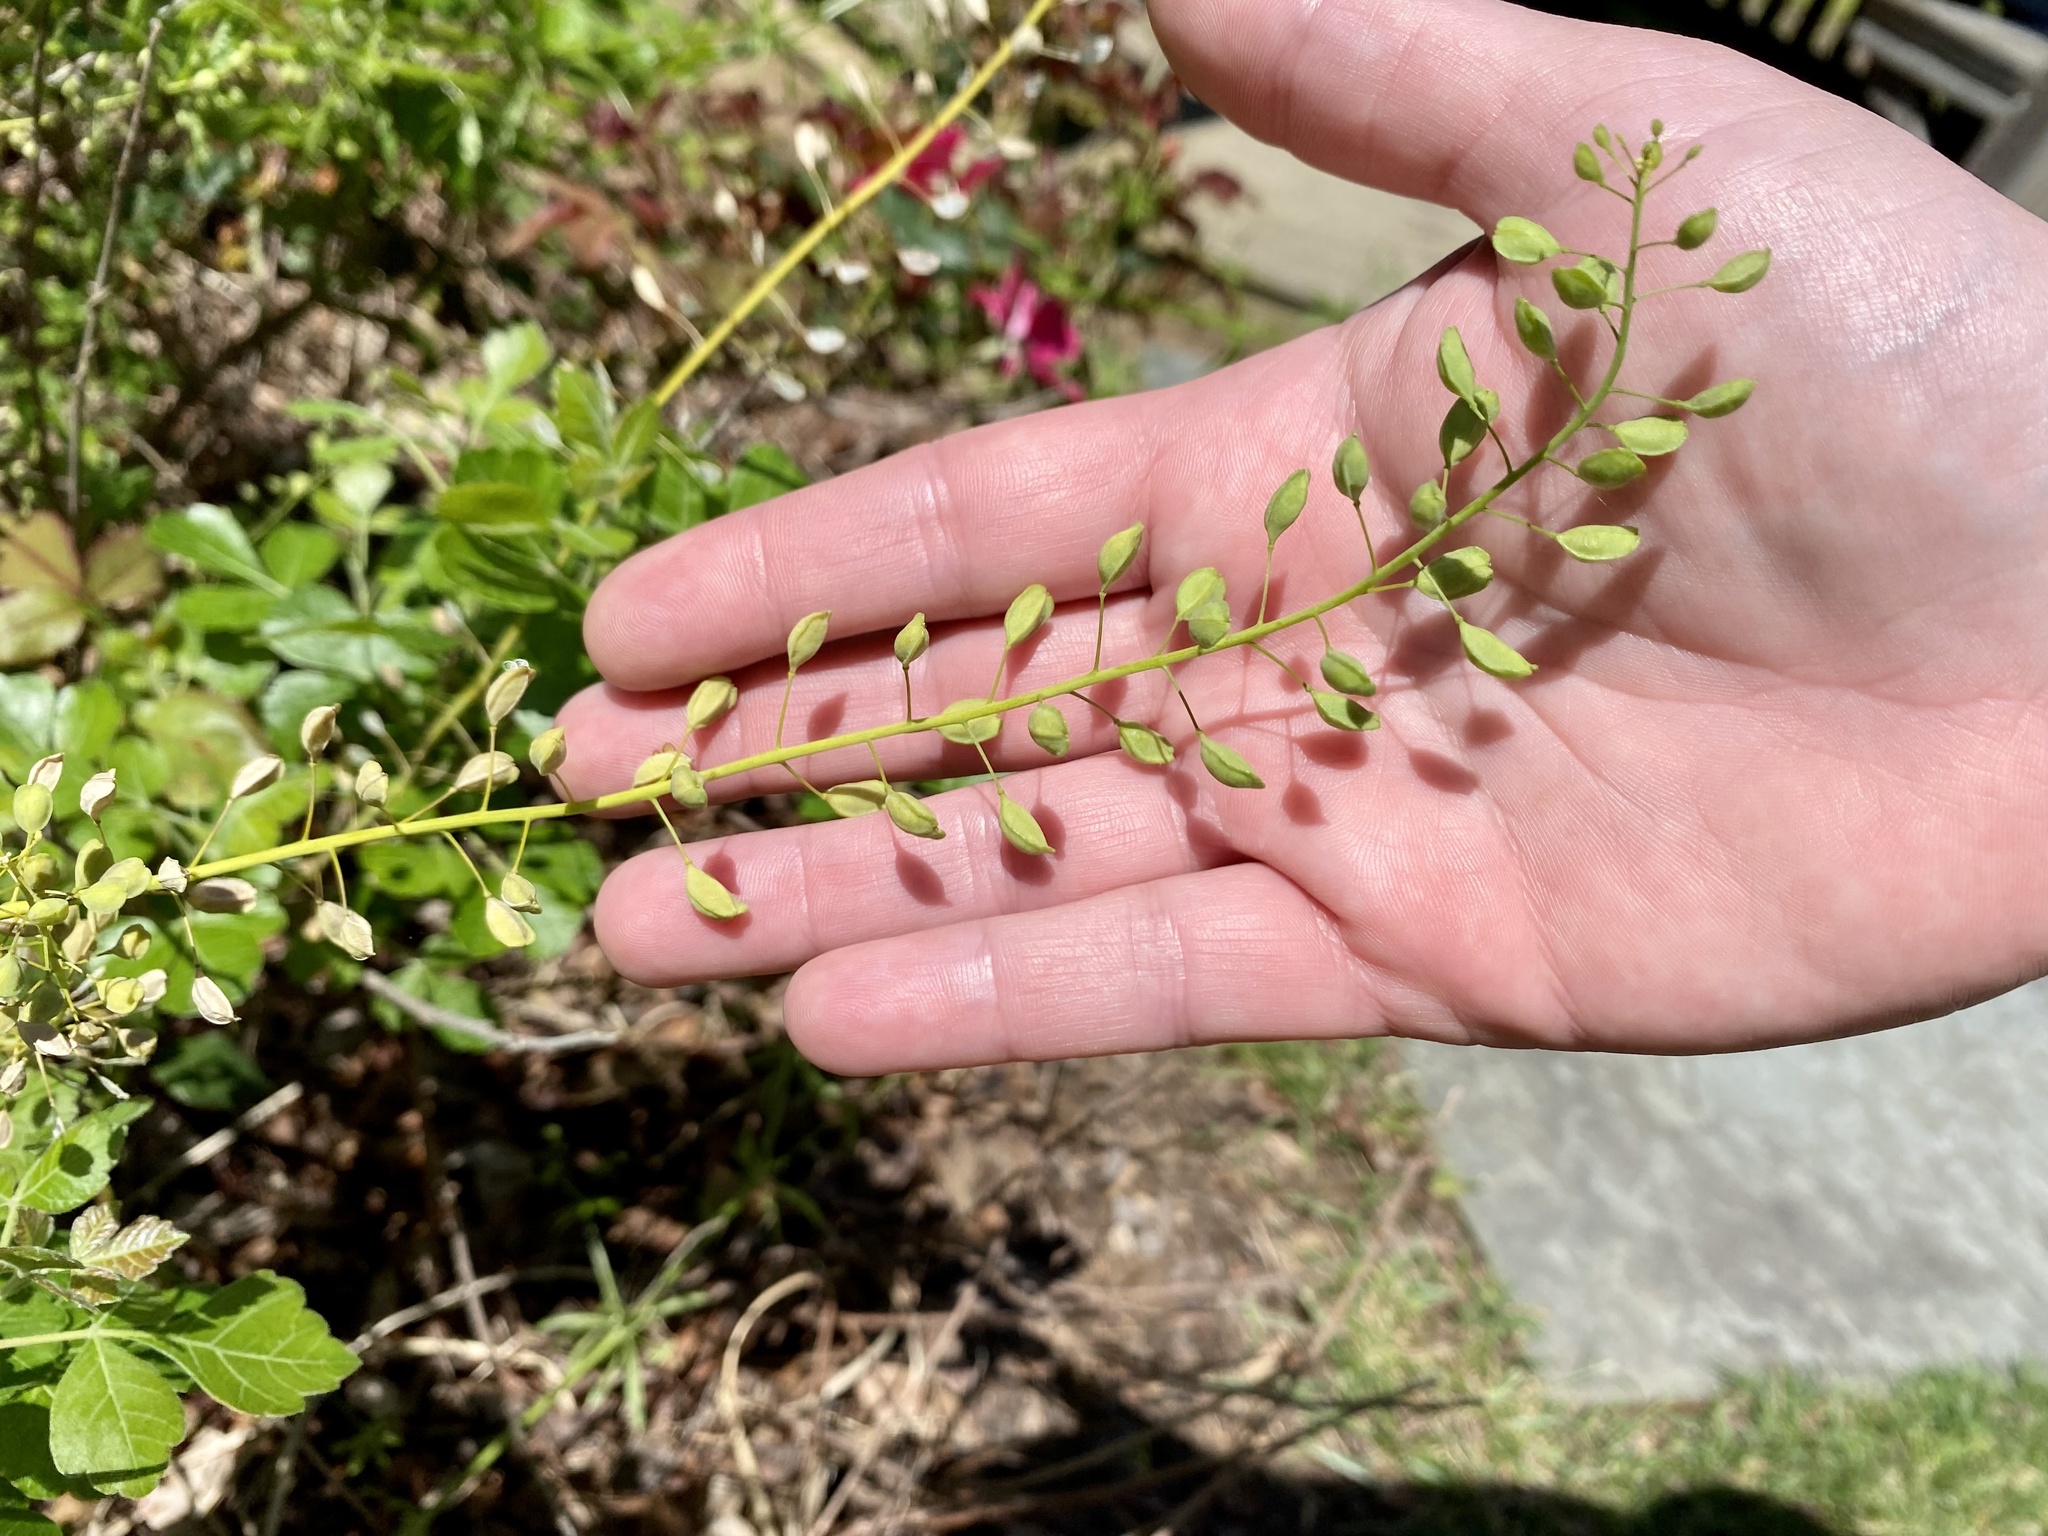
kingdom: Plantae
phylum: Tracheophyta
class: Magnoliopsida
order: Brassicales
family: Brassicaceae
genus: Mummenhoffia
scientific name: Mummenhoffia alliacea
